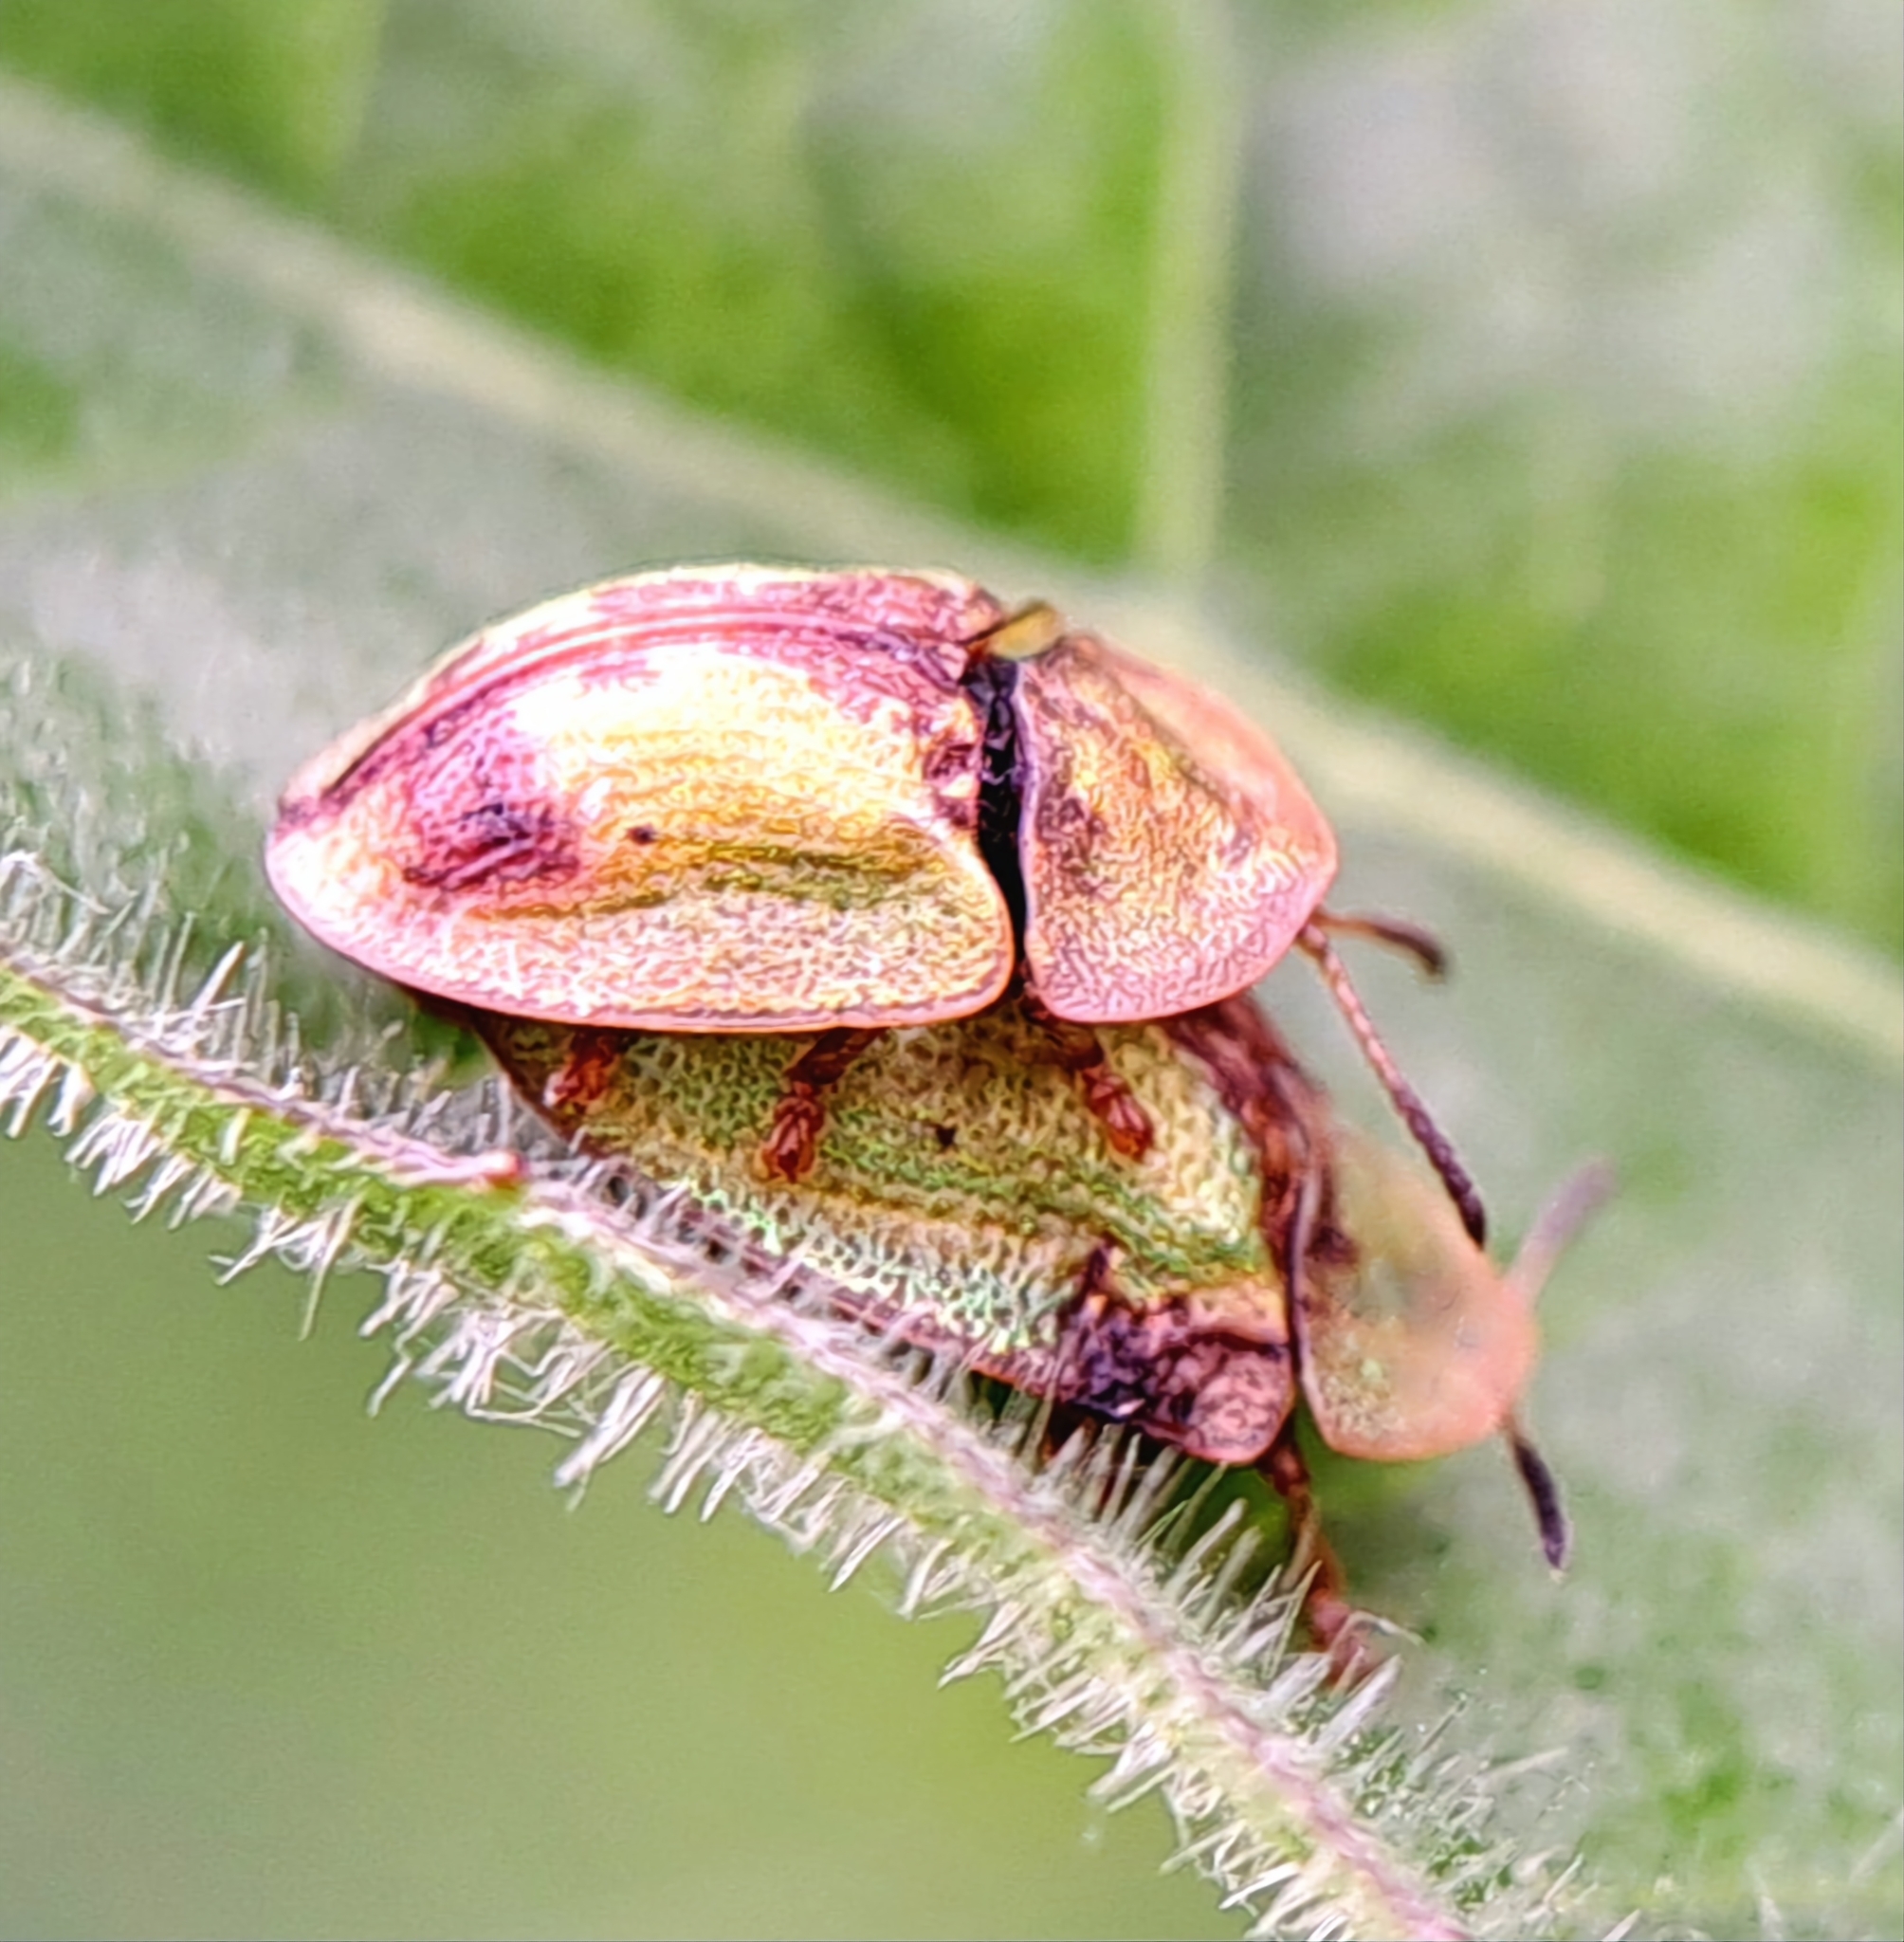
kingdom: Animalia
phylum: Arthropoda
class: Insecta
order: Coleoptera
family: Chrysomelidae
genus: Cassida
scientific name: Cassida vibex
